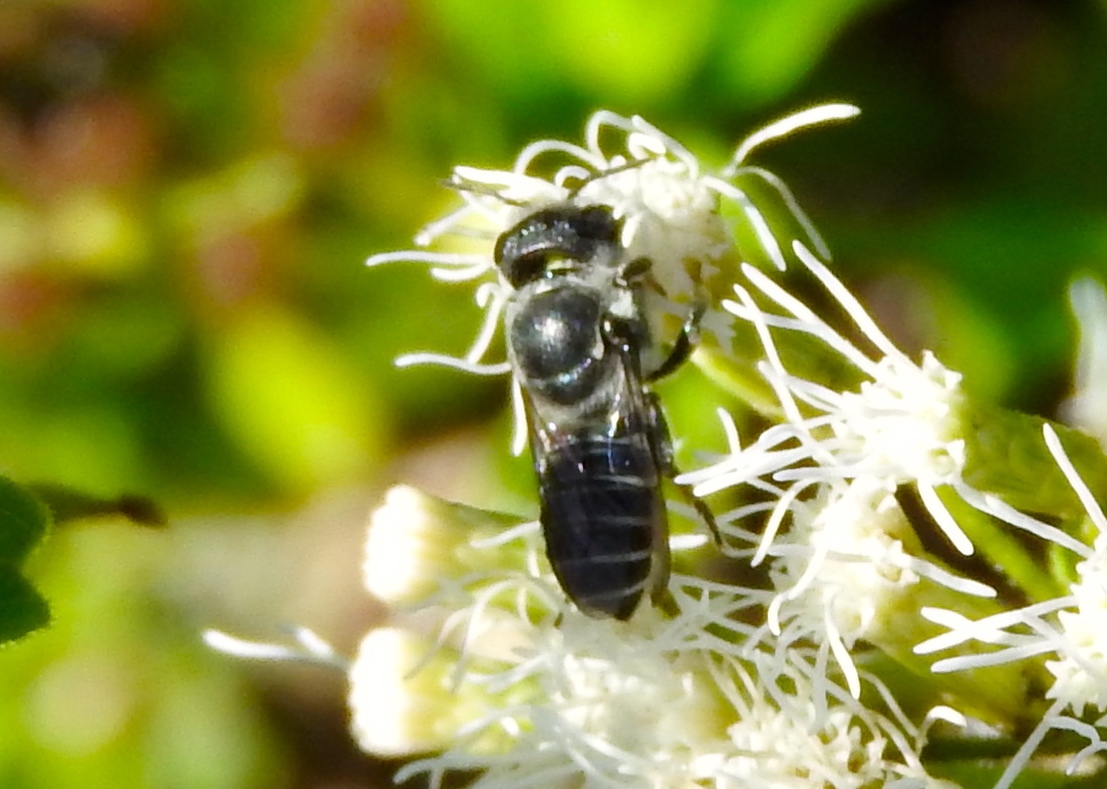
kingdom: Animalia
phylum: Arthropoda
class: Insecta
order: Hymenoptera
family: Megachilidae
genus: Megachile
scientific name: Megachile
